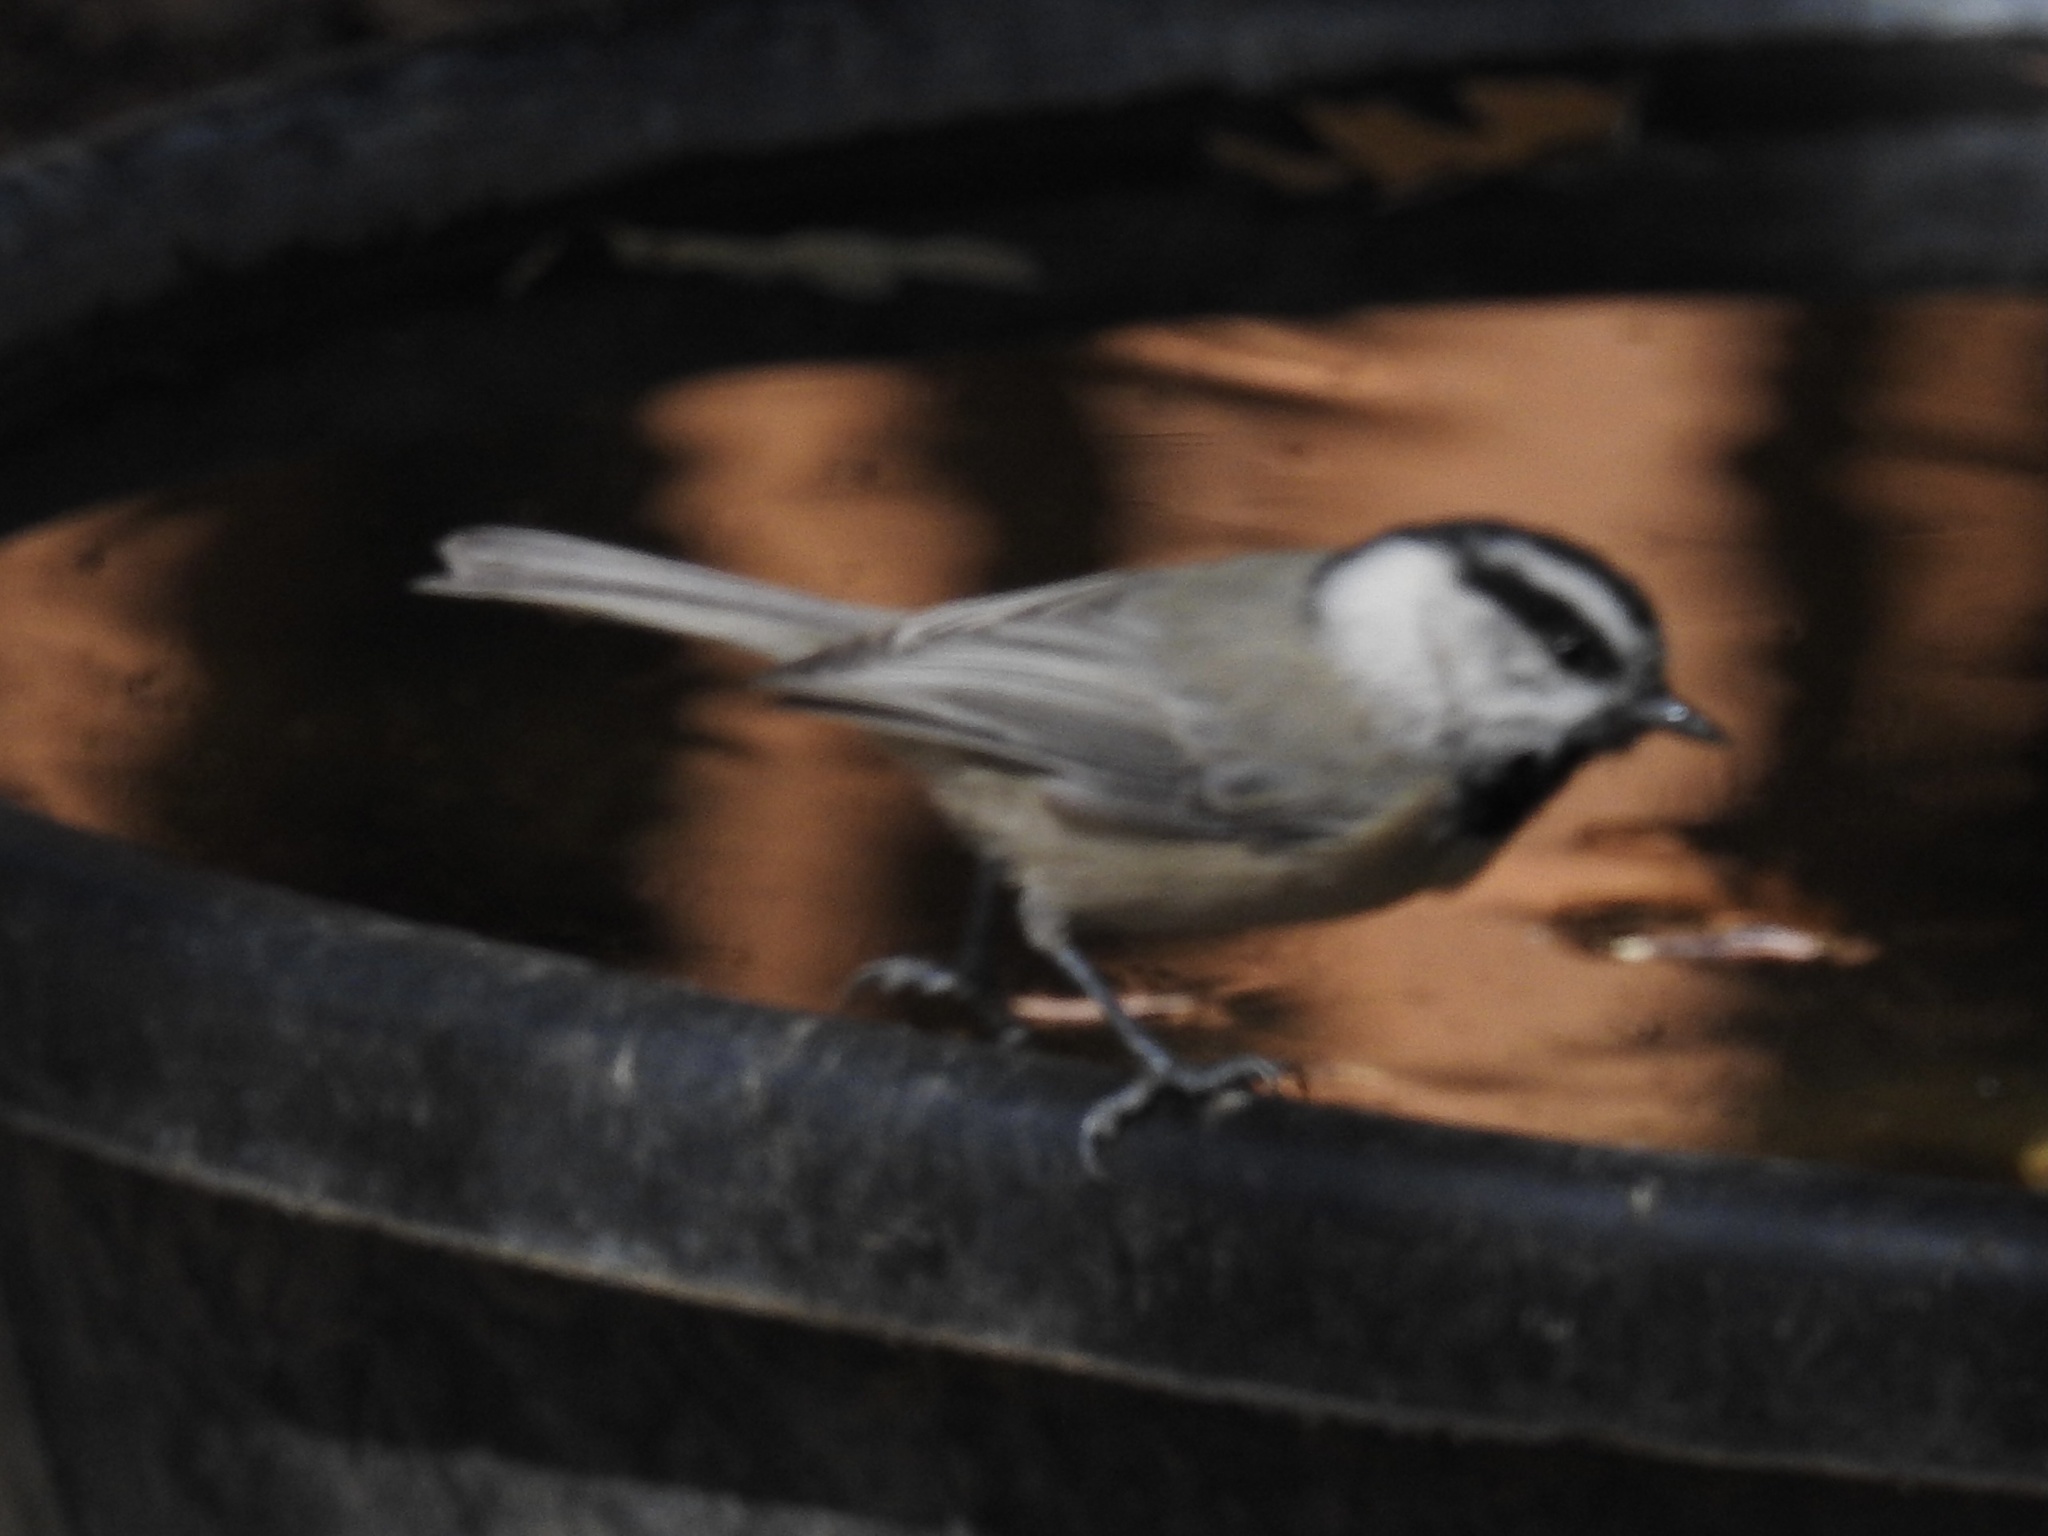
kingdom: Animalia
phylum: Chordata
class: Aves
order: Passeriformes
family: Paridae
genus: Poecile
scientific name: Poecile gambeli
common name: Mountain chickadee
